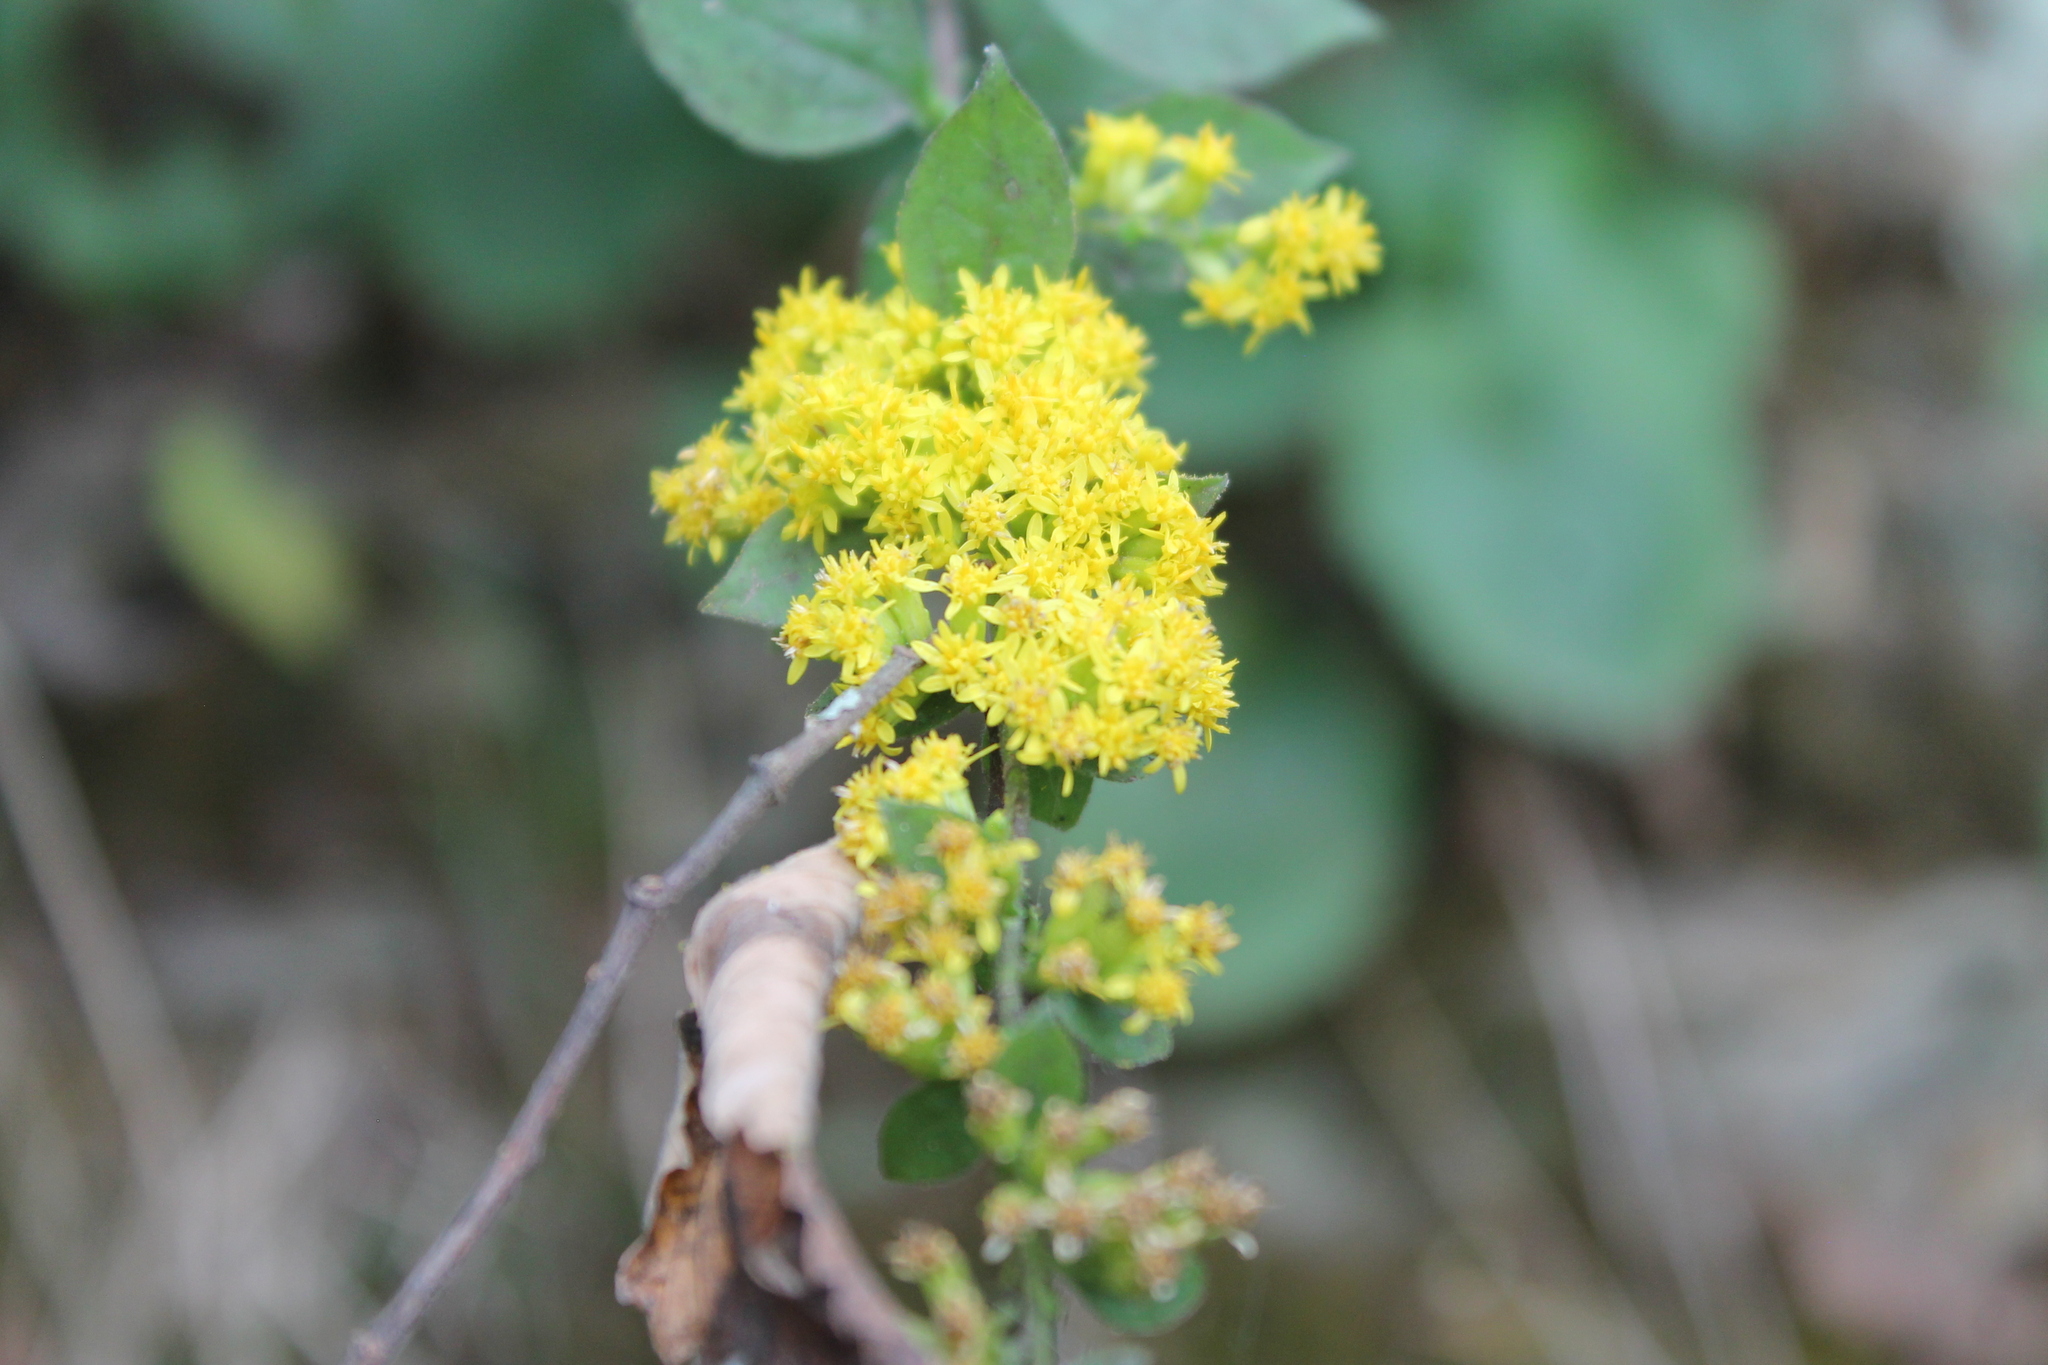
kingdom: Plantae
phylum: Tracheophyta
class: Magnoliopsida
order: Asterales
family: Asteraceae
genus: Solidago
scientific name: Solidago sphacelata
